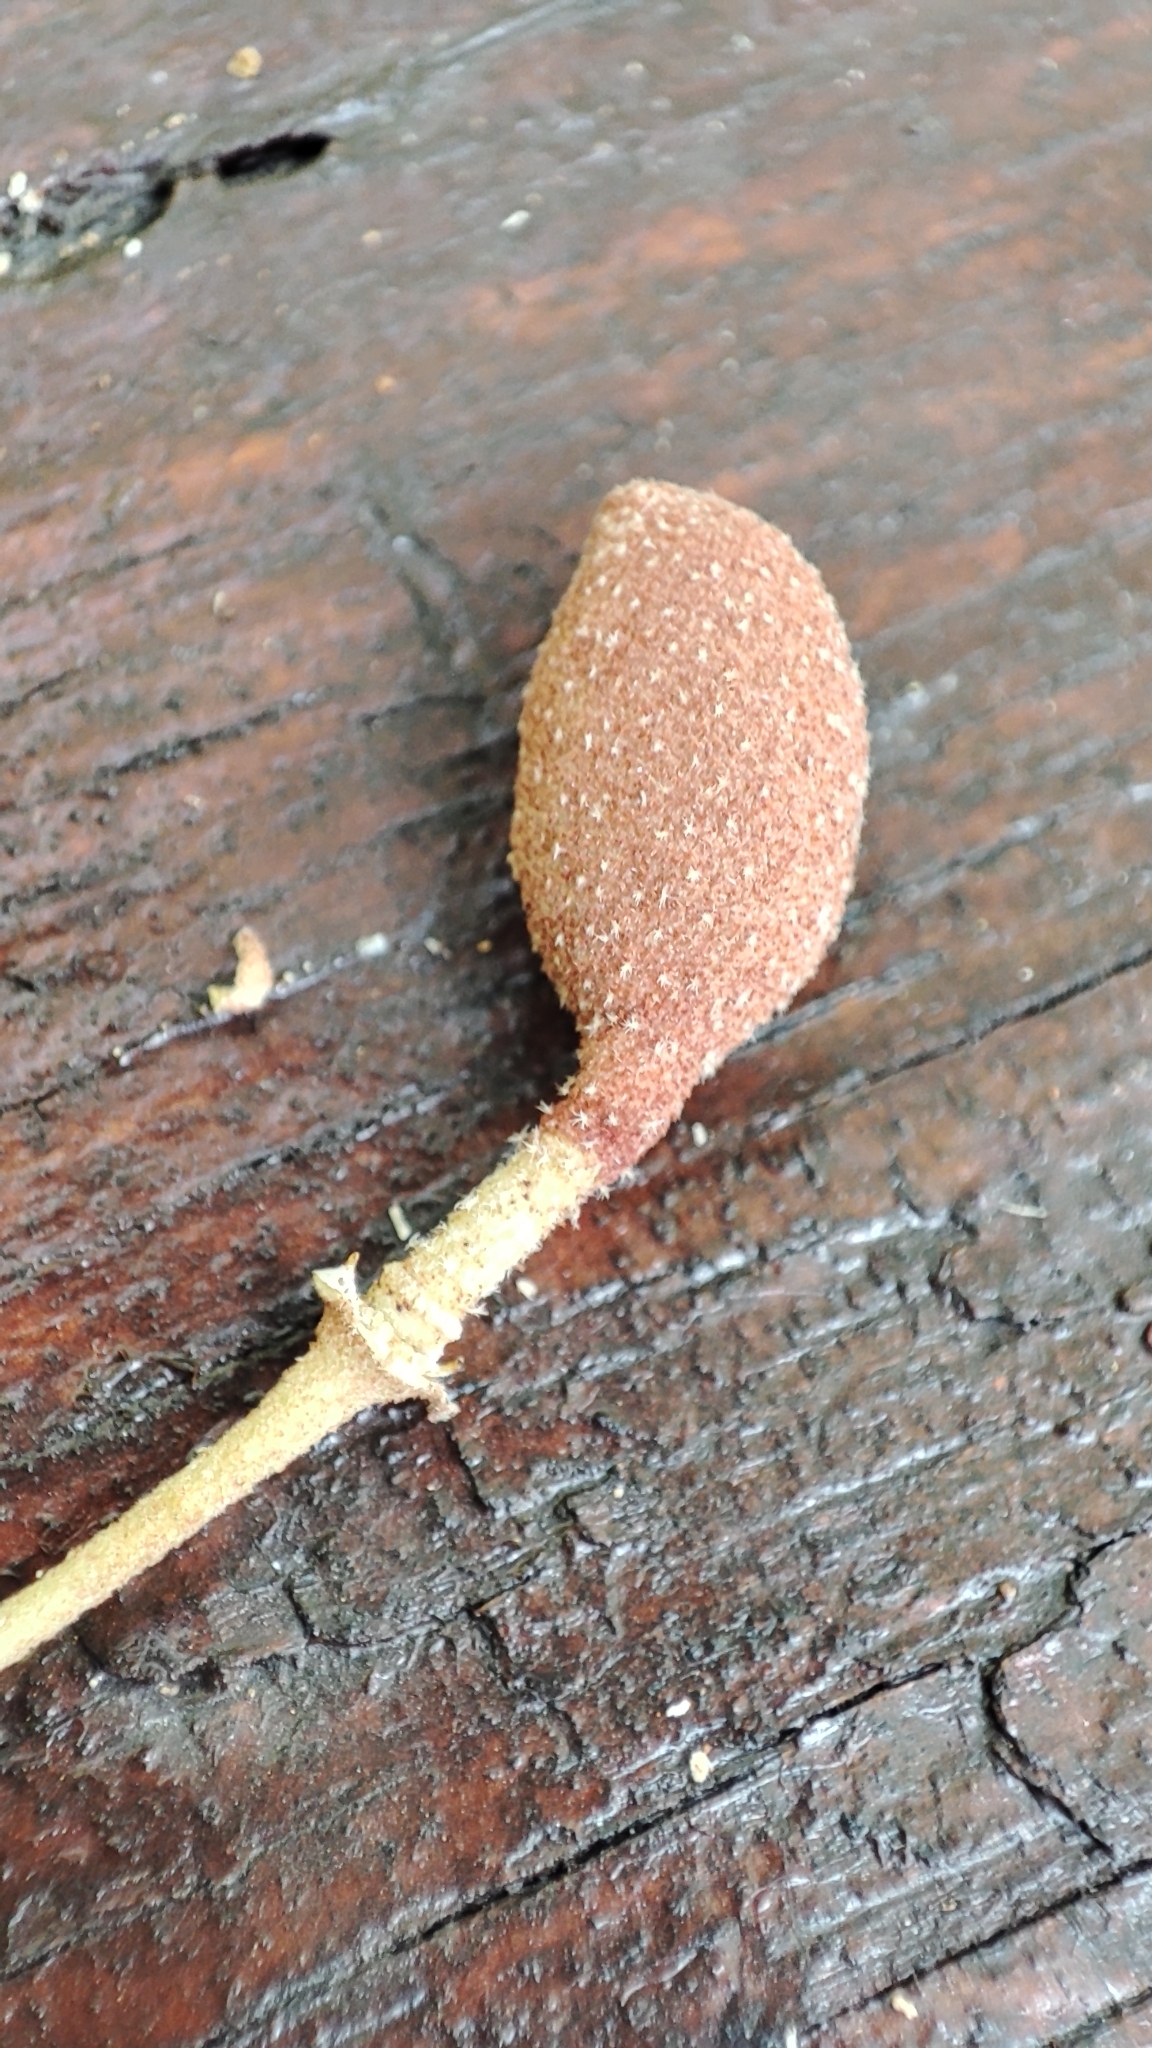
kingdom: Plantae
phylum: Tracheophyta
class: Magnoliopsida
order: Brassicales
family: Capparaceae
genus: Quadrella
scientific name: Quadrella ferruginea
